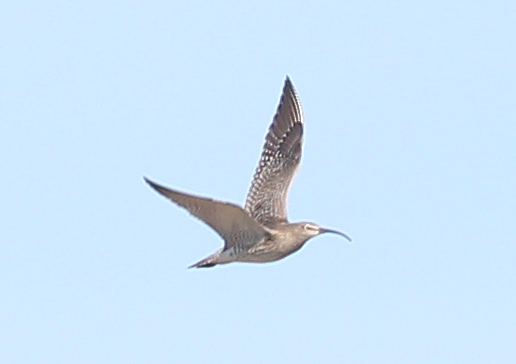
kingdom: Animalia
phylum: Chordata
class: Aves
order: Charadriiformes
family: Scolopacidae
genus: Numenius
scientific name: Numenius phaeopus
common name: Whimbrel
